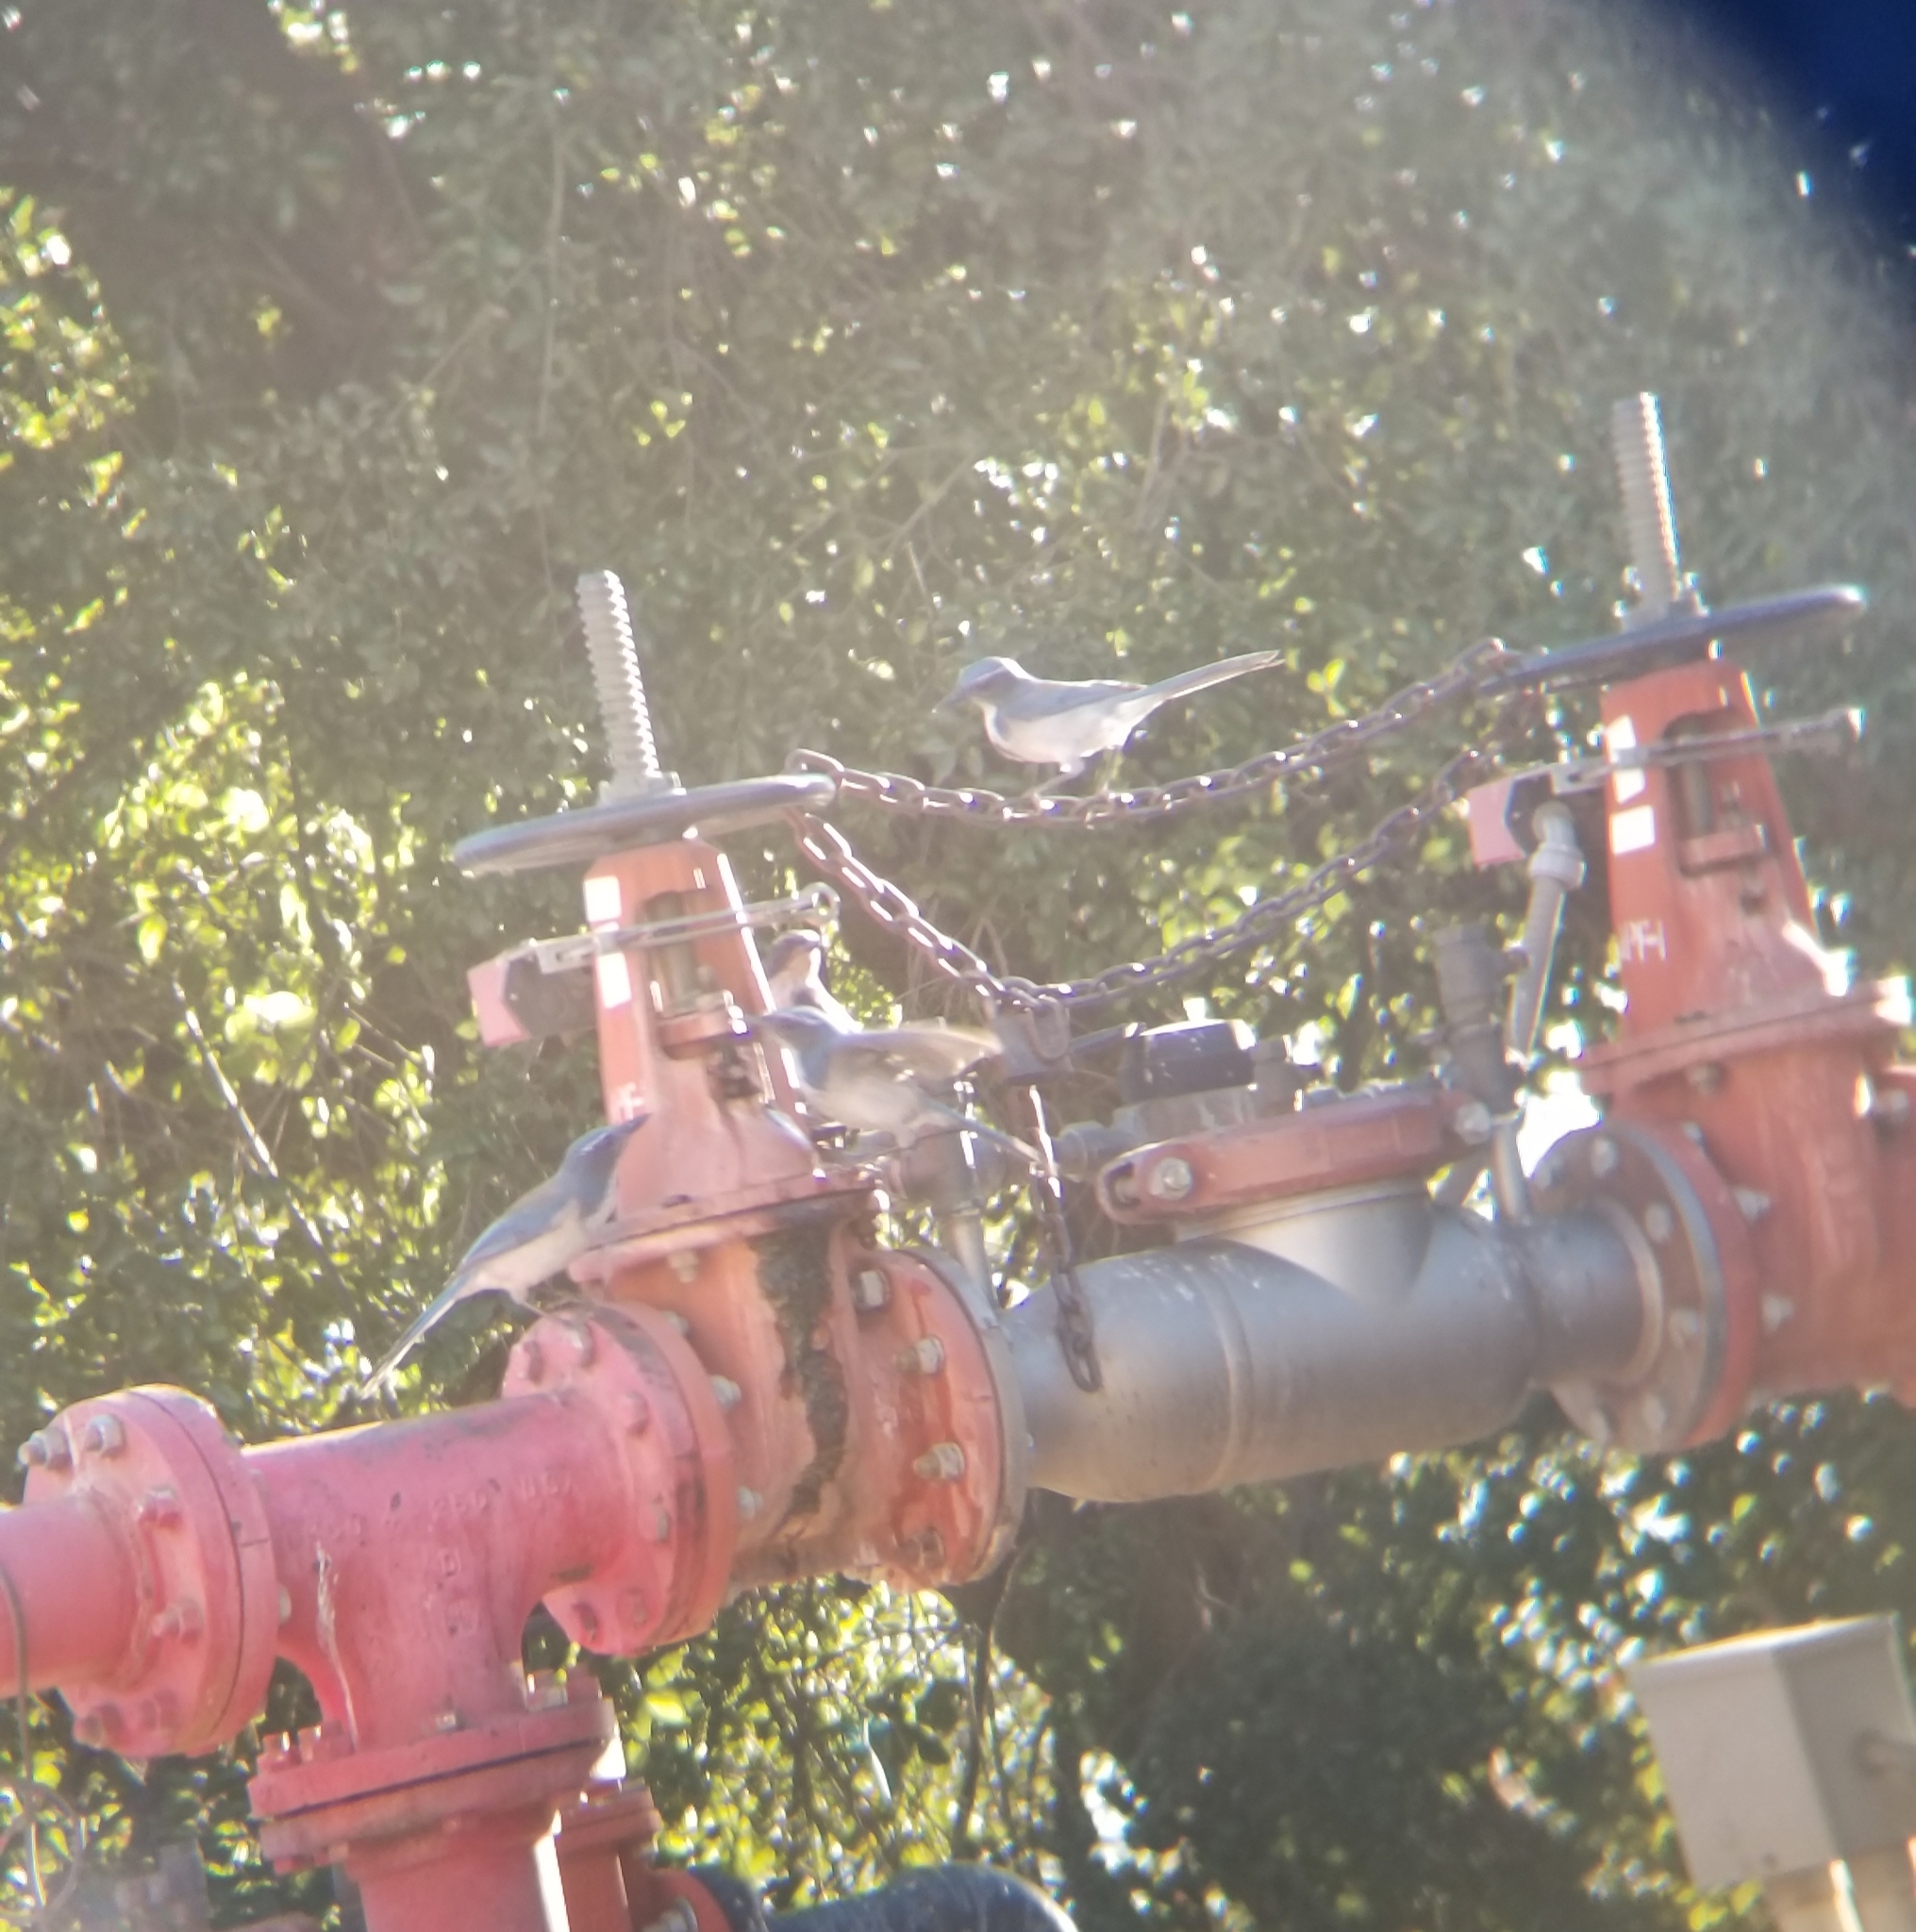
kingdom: Animalia
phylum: Chordata
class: Aves
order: Passeriformes
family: Corvidae
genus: Aphelocoma
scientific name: Aphelocoma californica
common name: California scrub-jay
